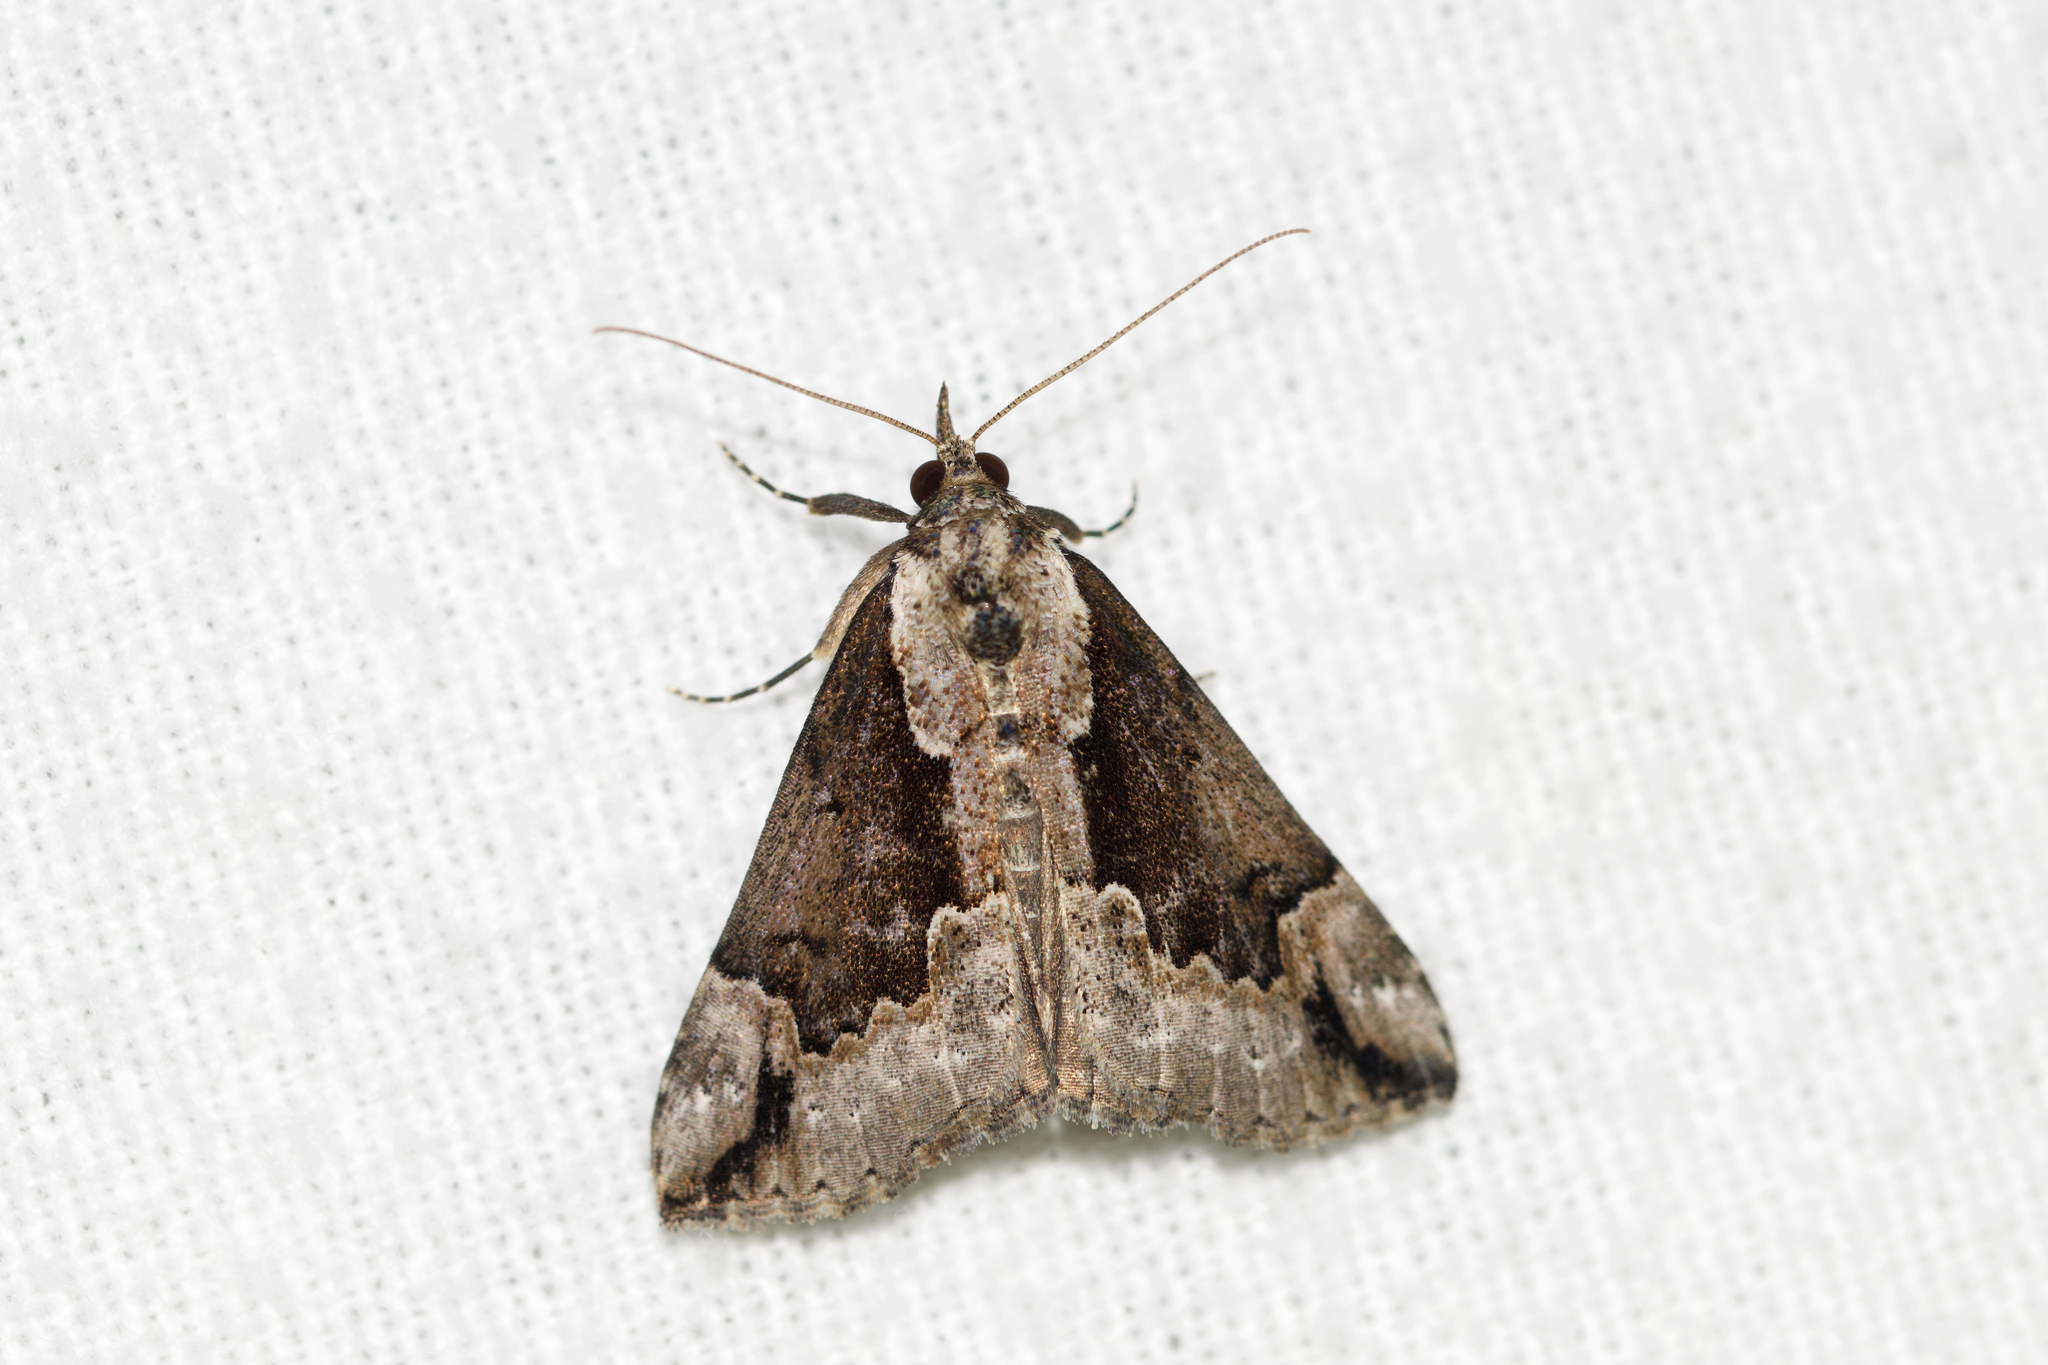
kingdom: Animalia
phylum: Arthropoda
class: Insecta
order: Lepidoptera
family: Erebidae
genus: Hypena
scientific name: Hypena baltimoralis
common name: Baltimore snout
